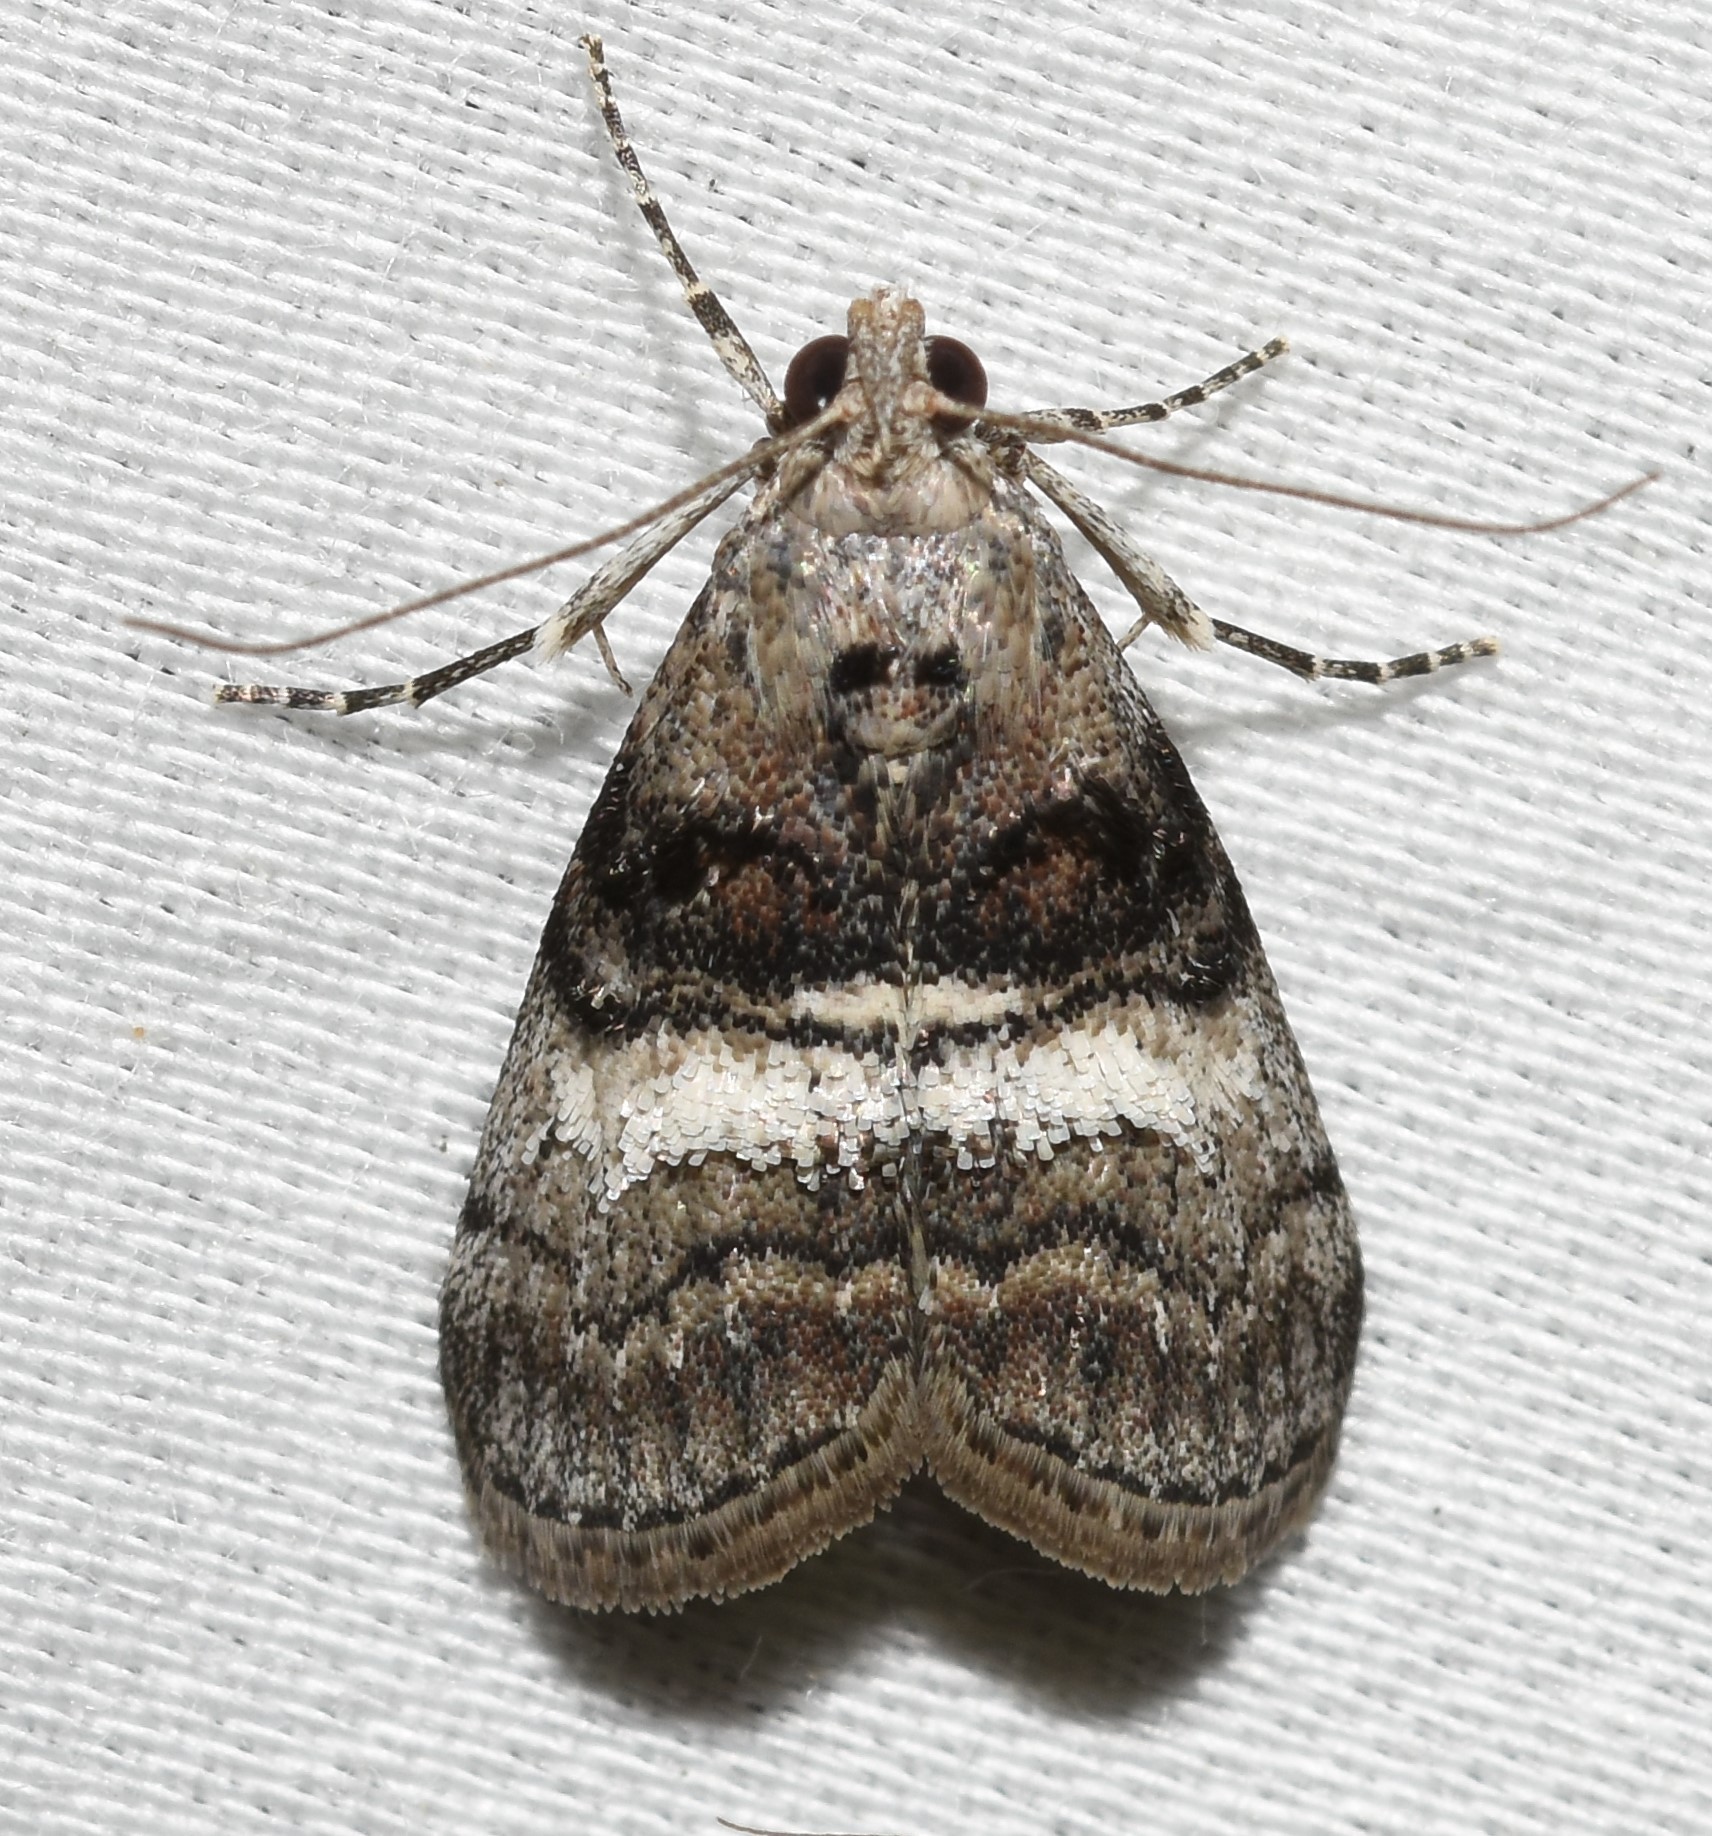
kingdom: Animalia
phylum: Arthropoda
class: Insecta
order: Lepidoptera
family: Pyralidae
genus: Pococera
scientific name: Pococera asperatella
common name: Maple webworm moth
